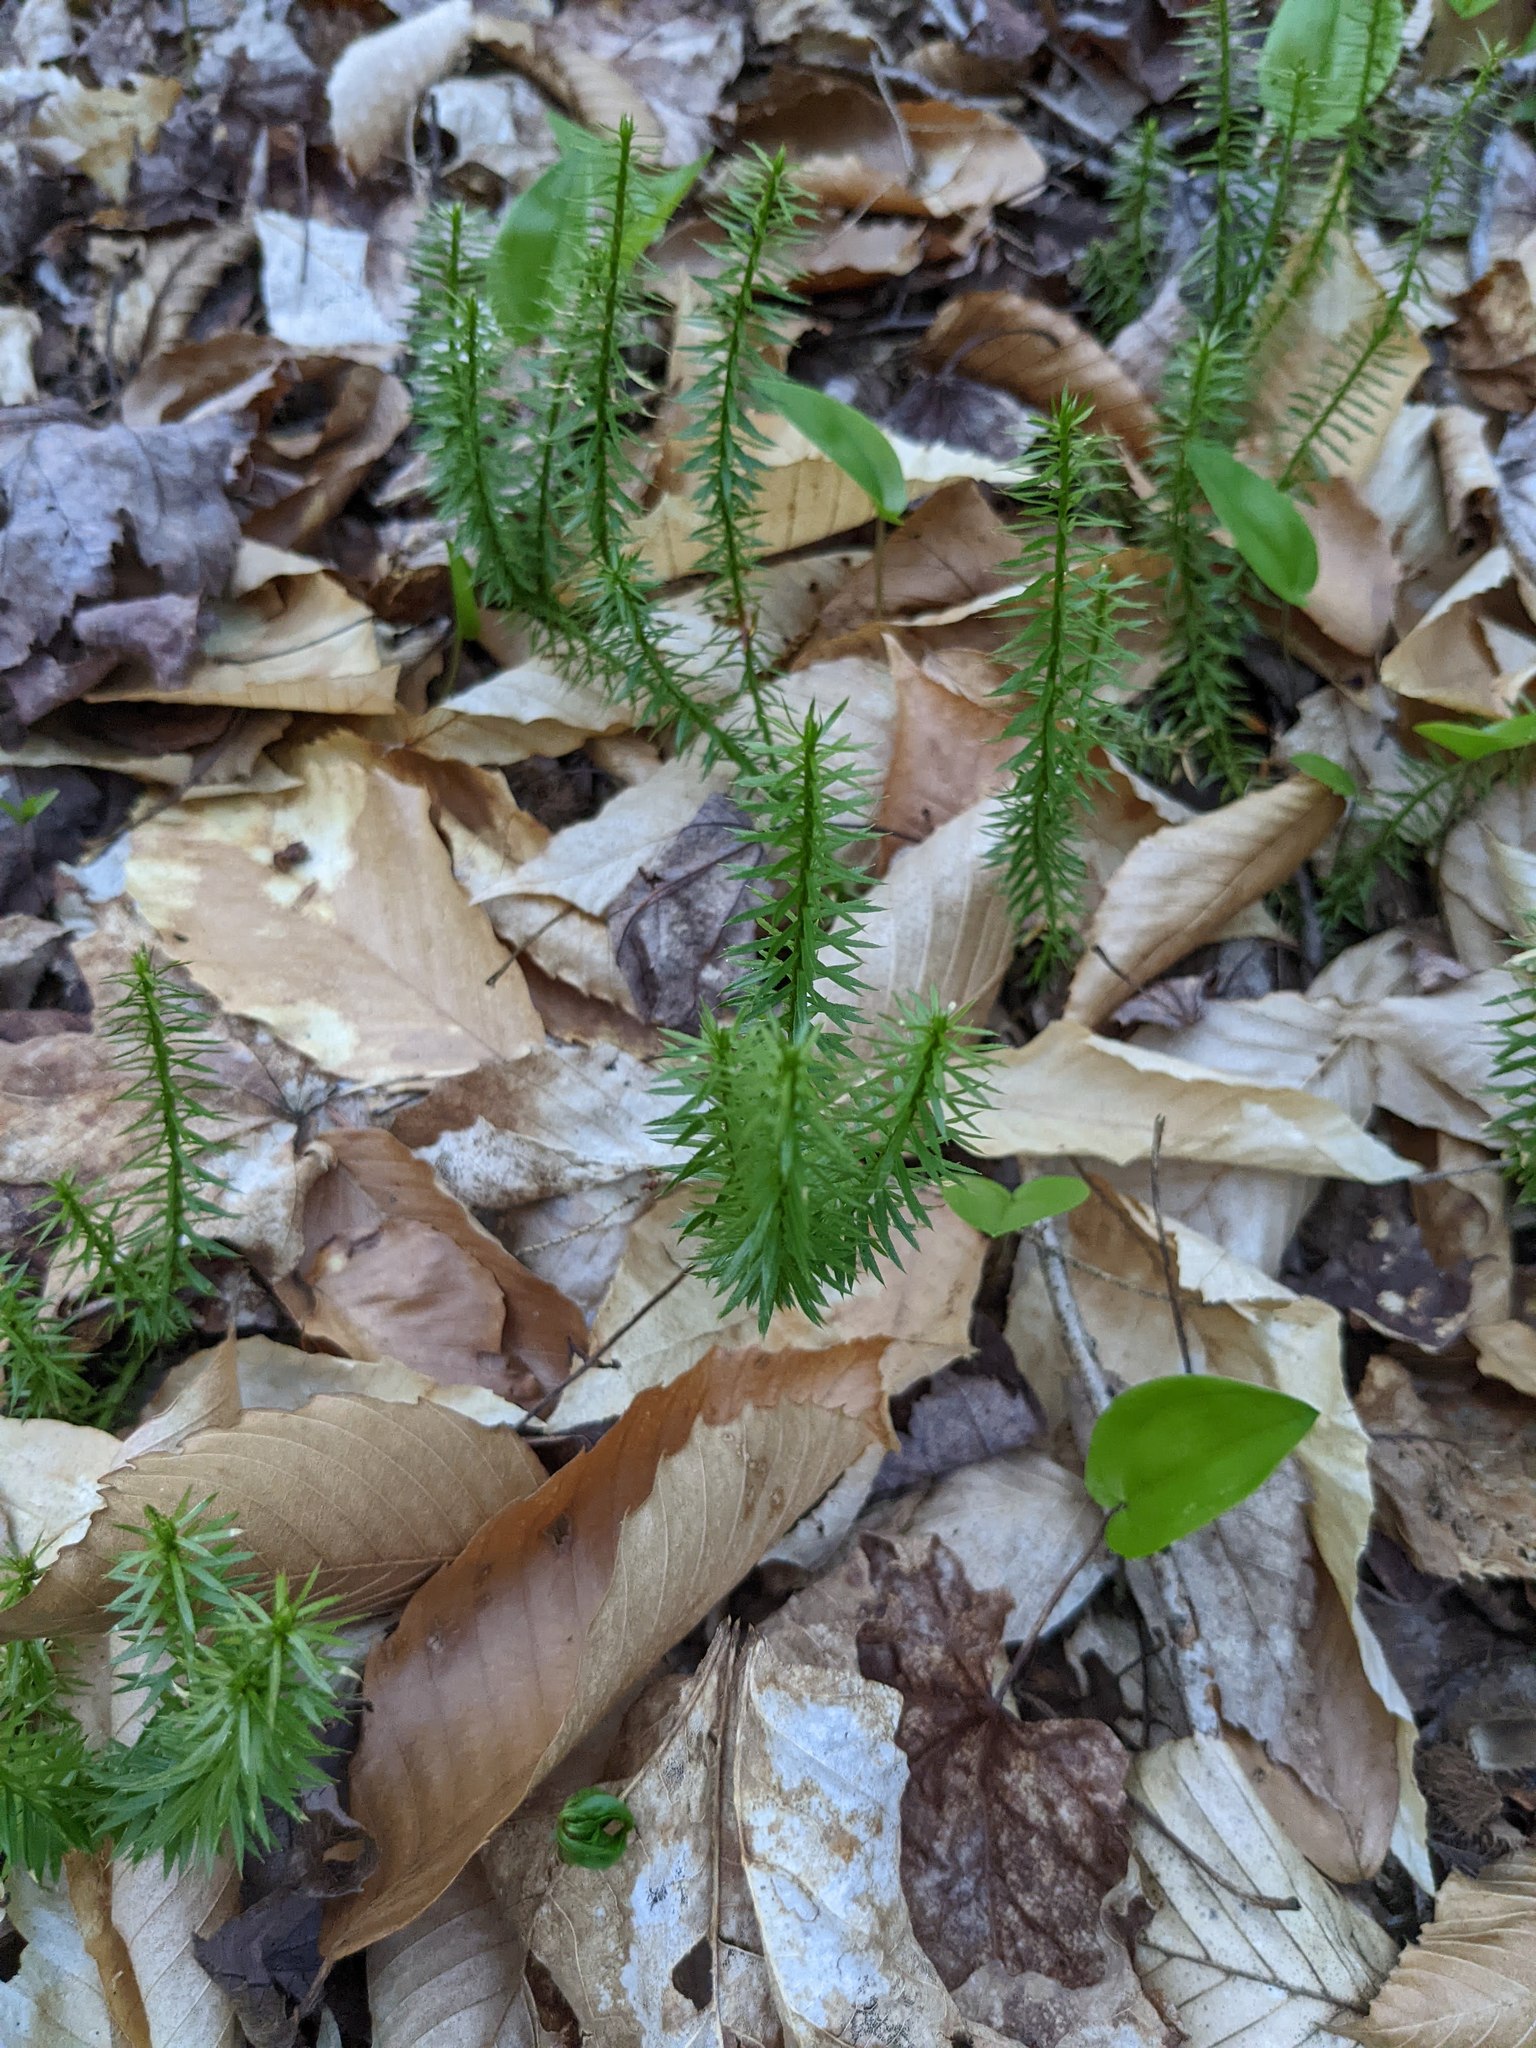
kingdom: Plantae
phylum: Tracheophyta
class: Magnoliopsida
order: Fagales
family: Fagaceae
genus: Fagus
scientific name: Fagus grandifolia
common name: American beech
